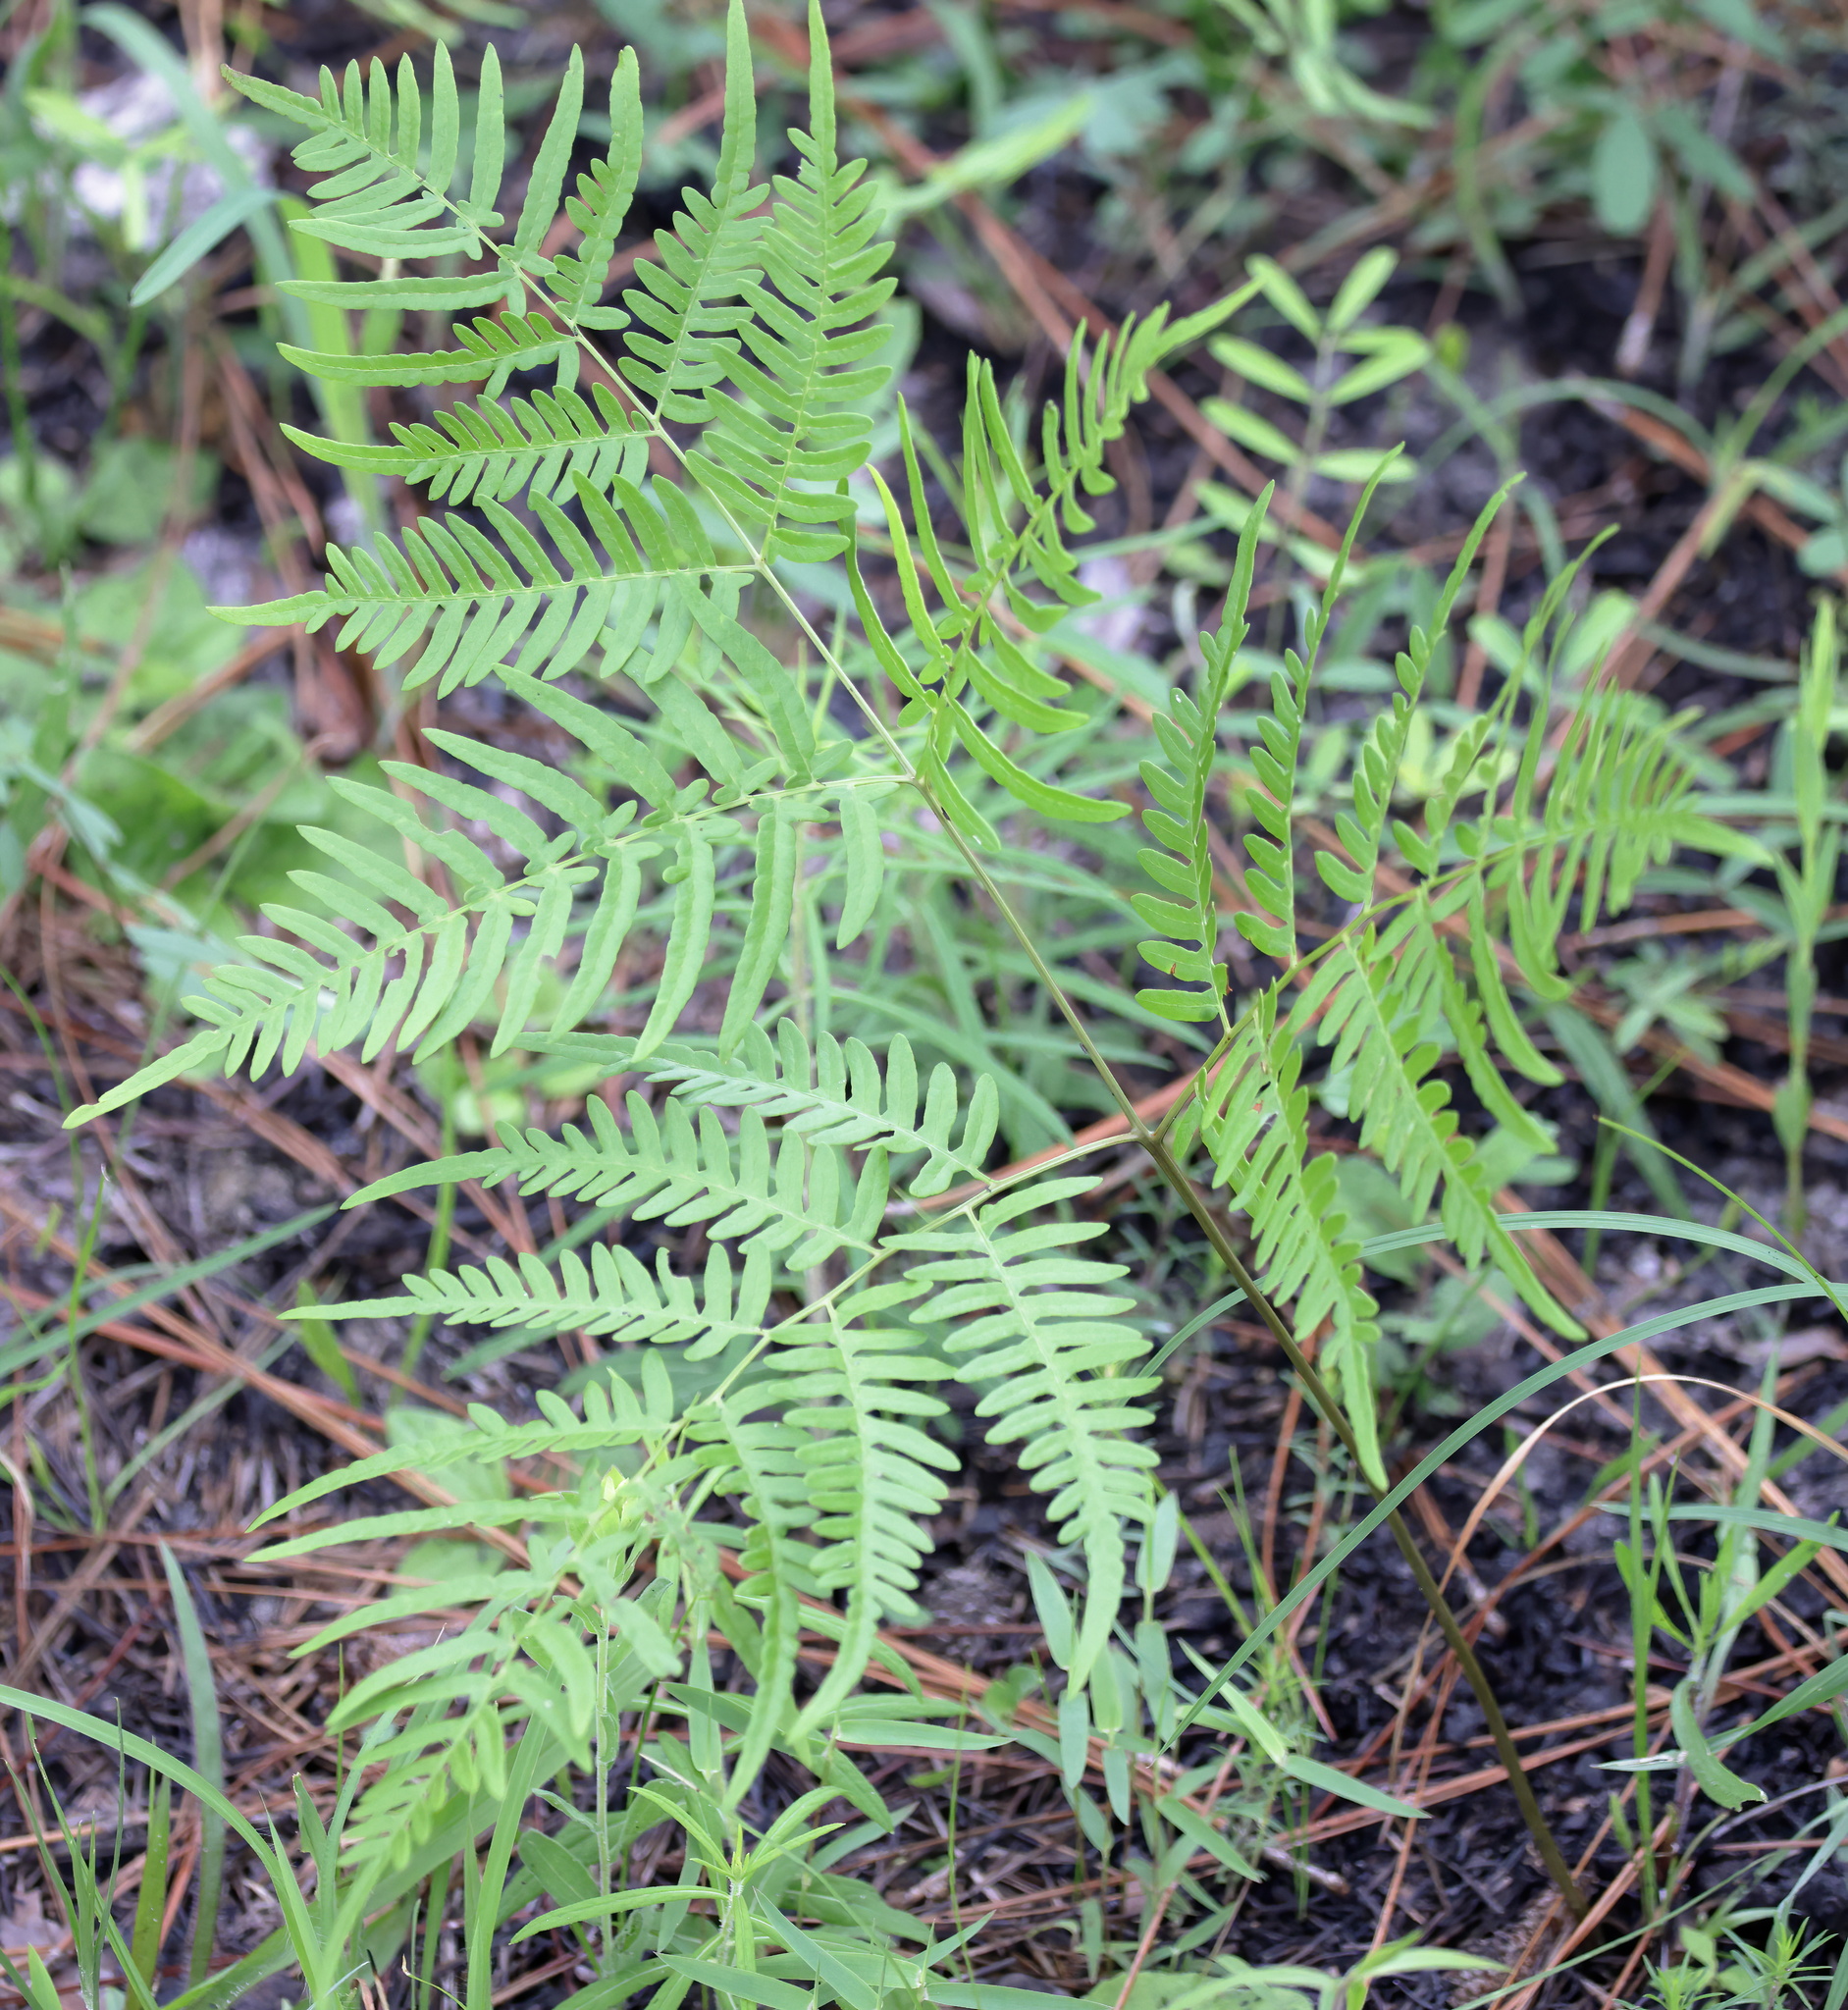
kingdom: Plantae
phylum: Tracheophyta
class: Polypodiopsida
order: Polypodiales
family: Dennstaedtiaceae
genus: Pteridium
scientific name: Pteridium
